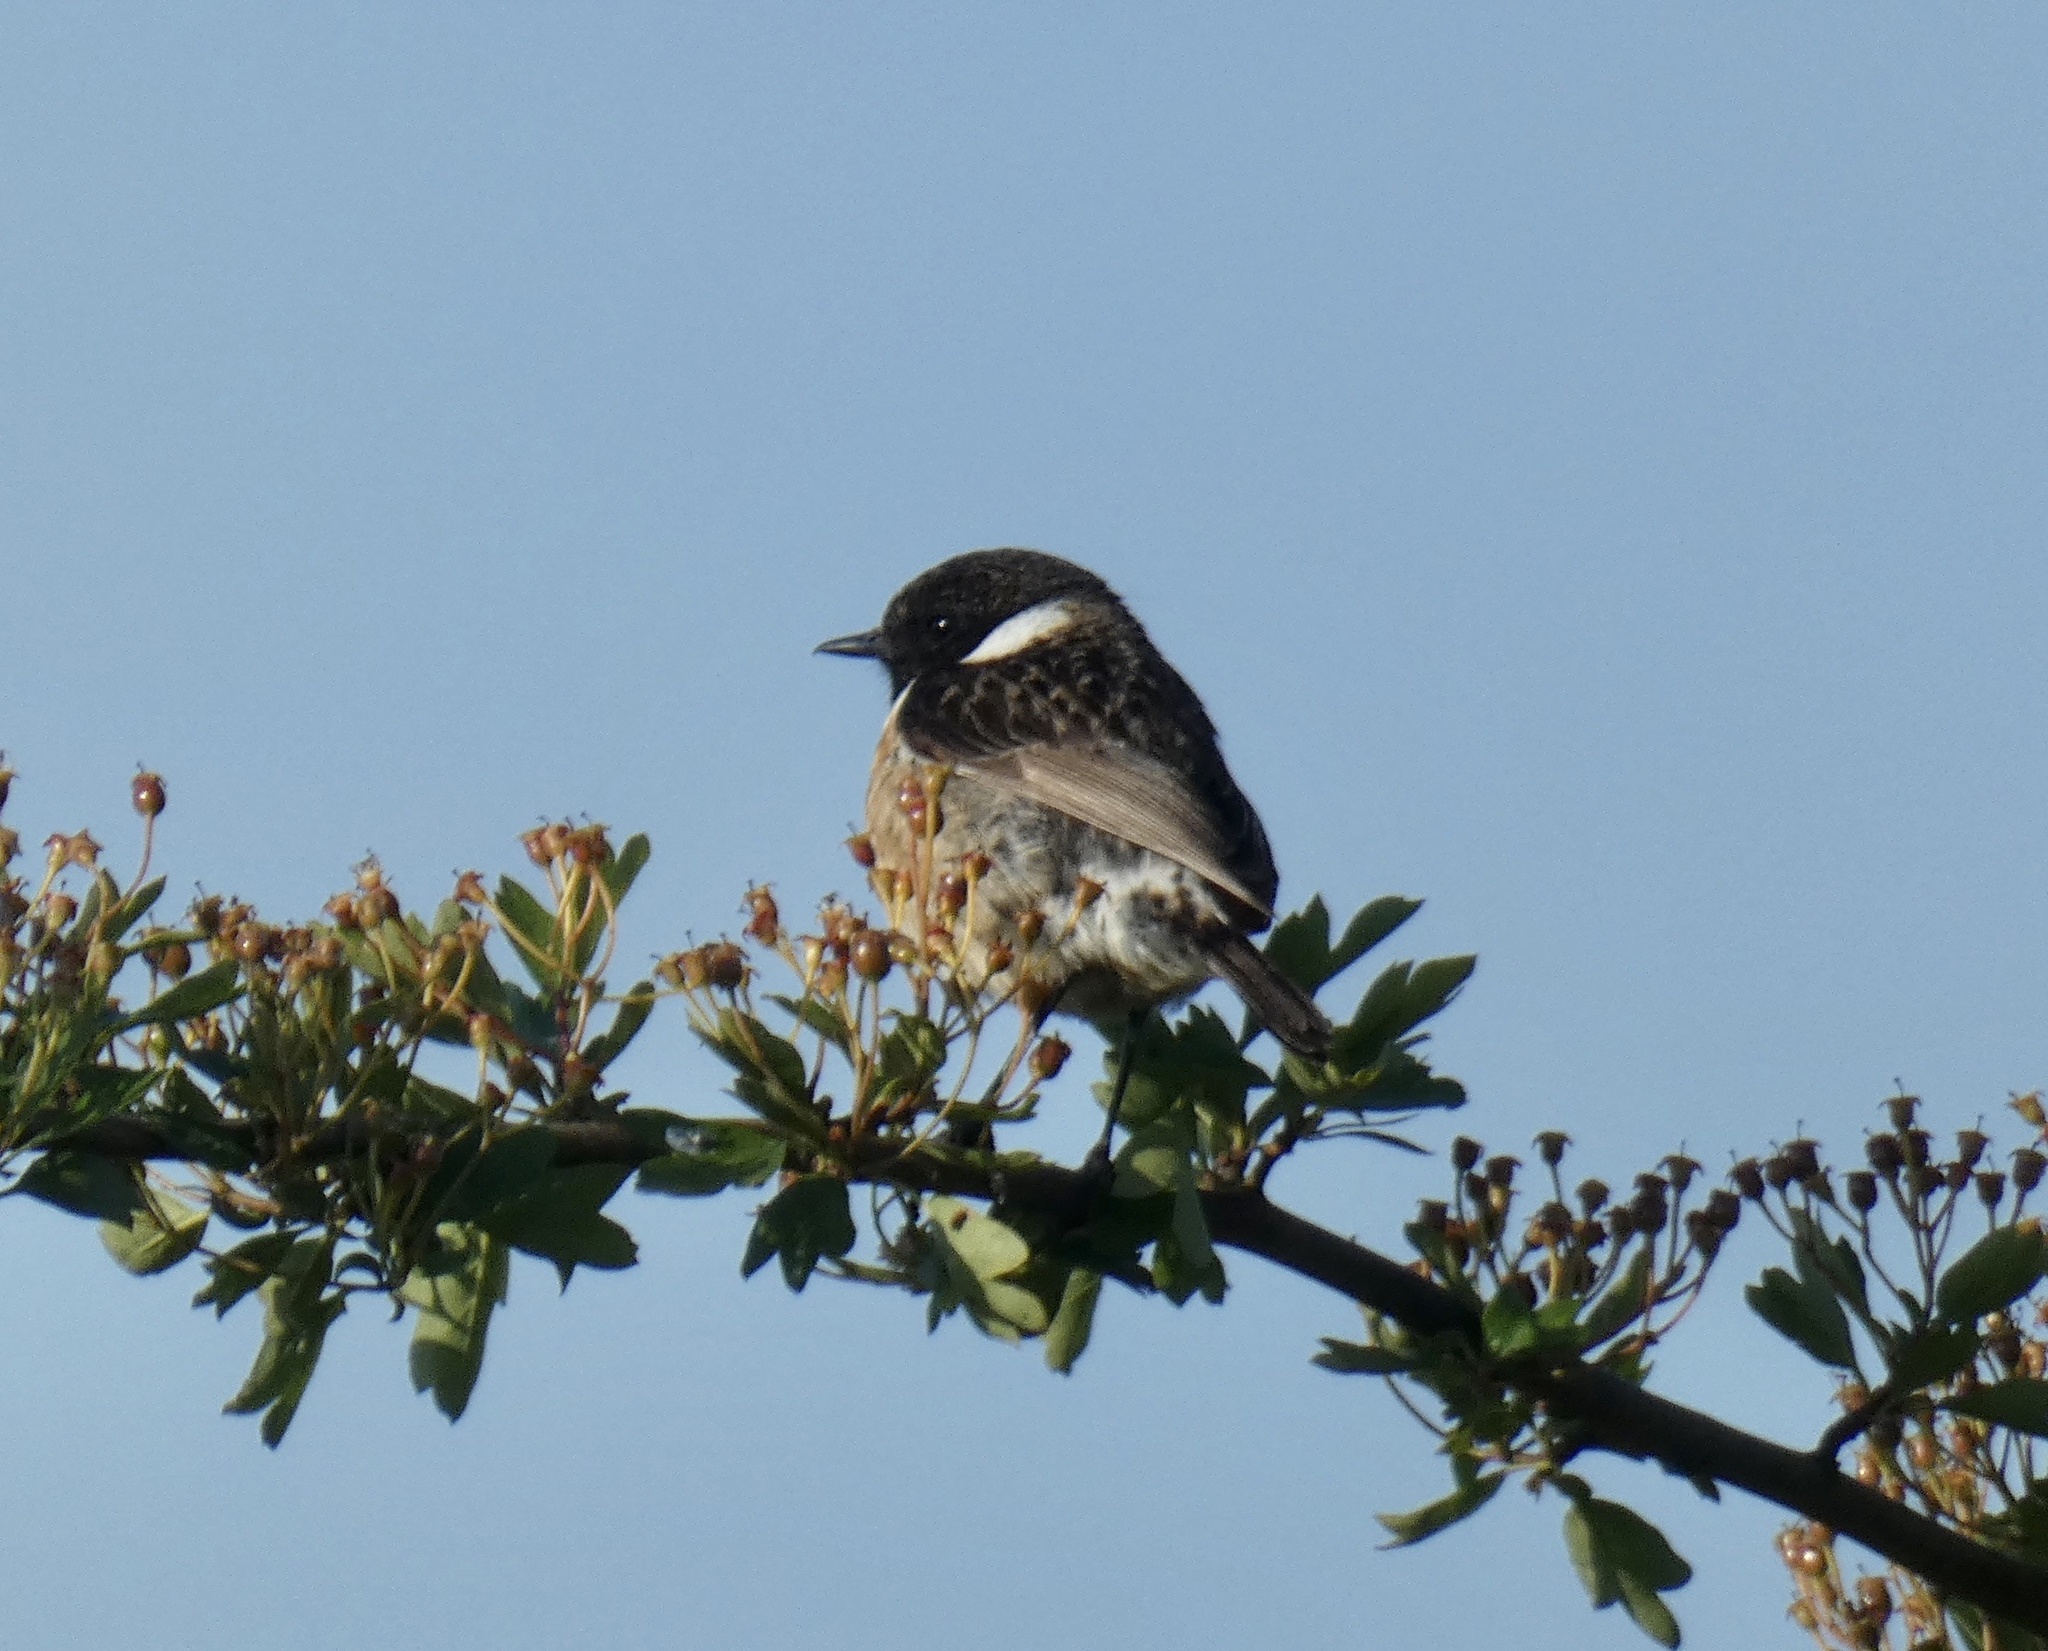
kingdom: Animalia
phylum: Chordata
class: Aves
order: Passeriformes
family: Muscicapidae
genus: Saxicola
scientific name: Saxicola rubicola
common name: European stonechat
